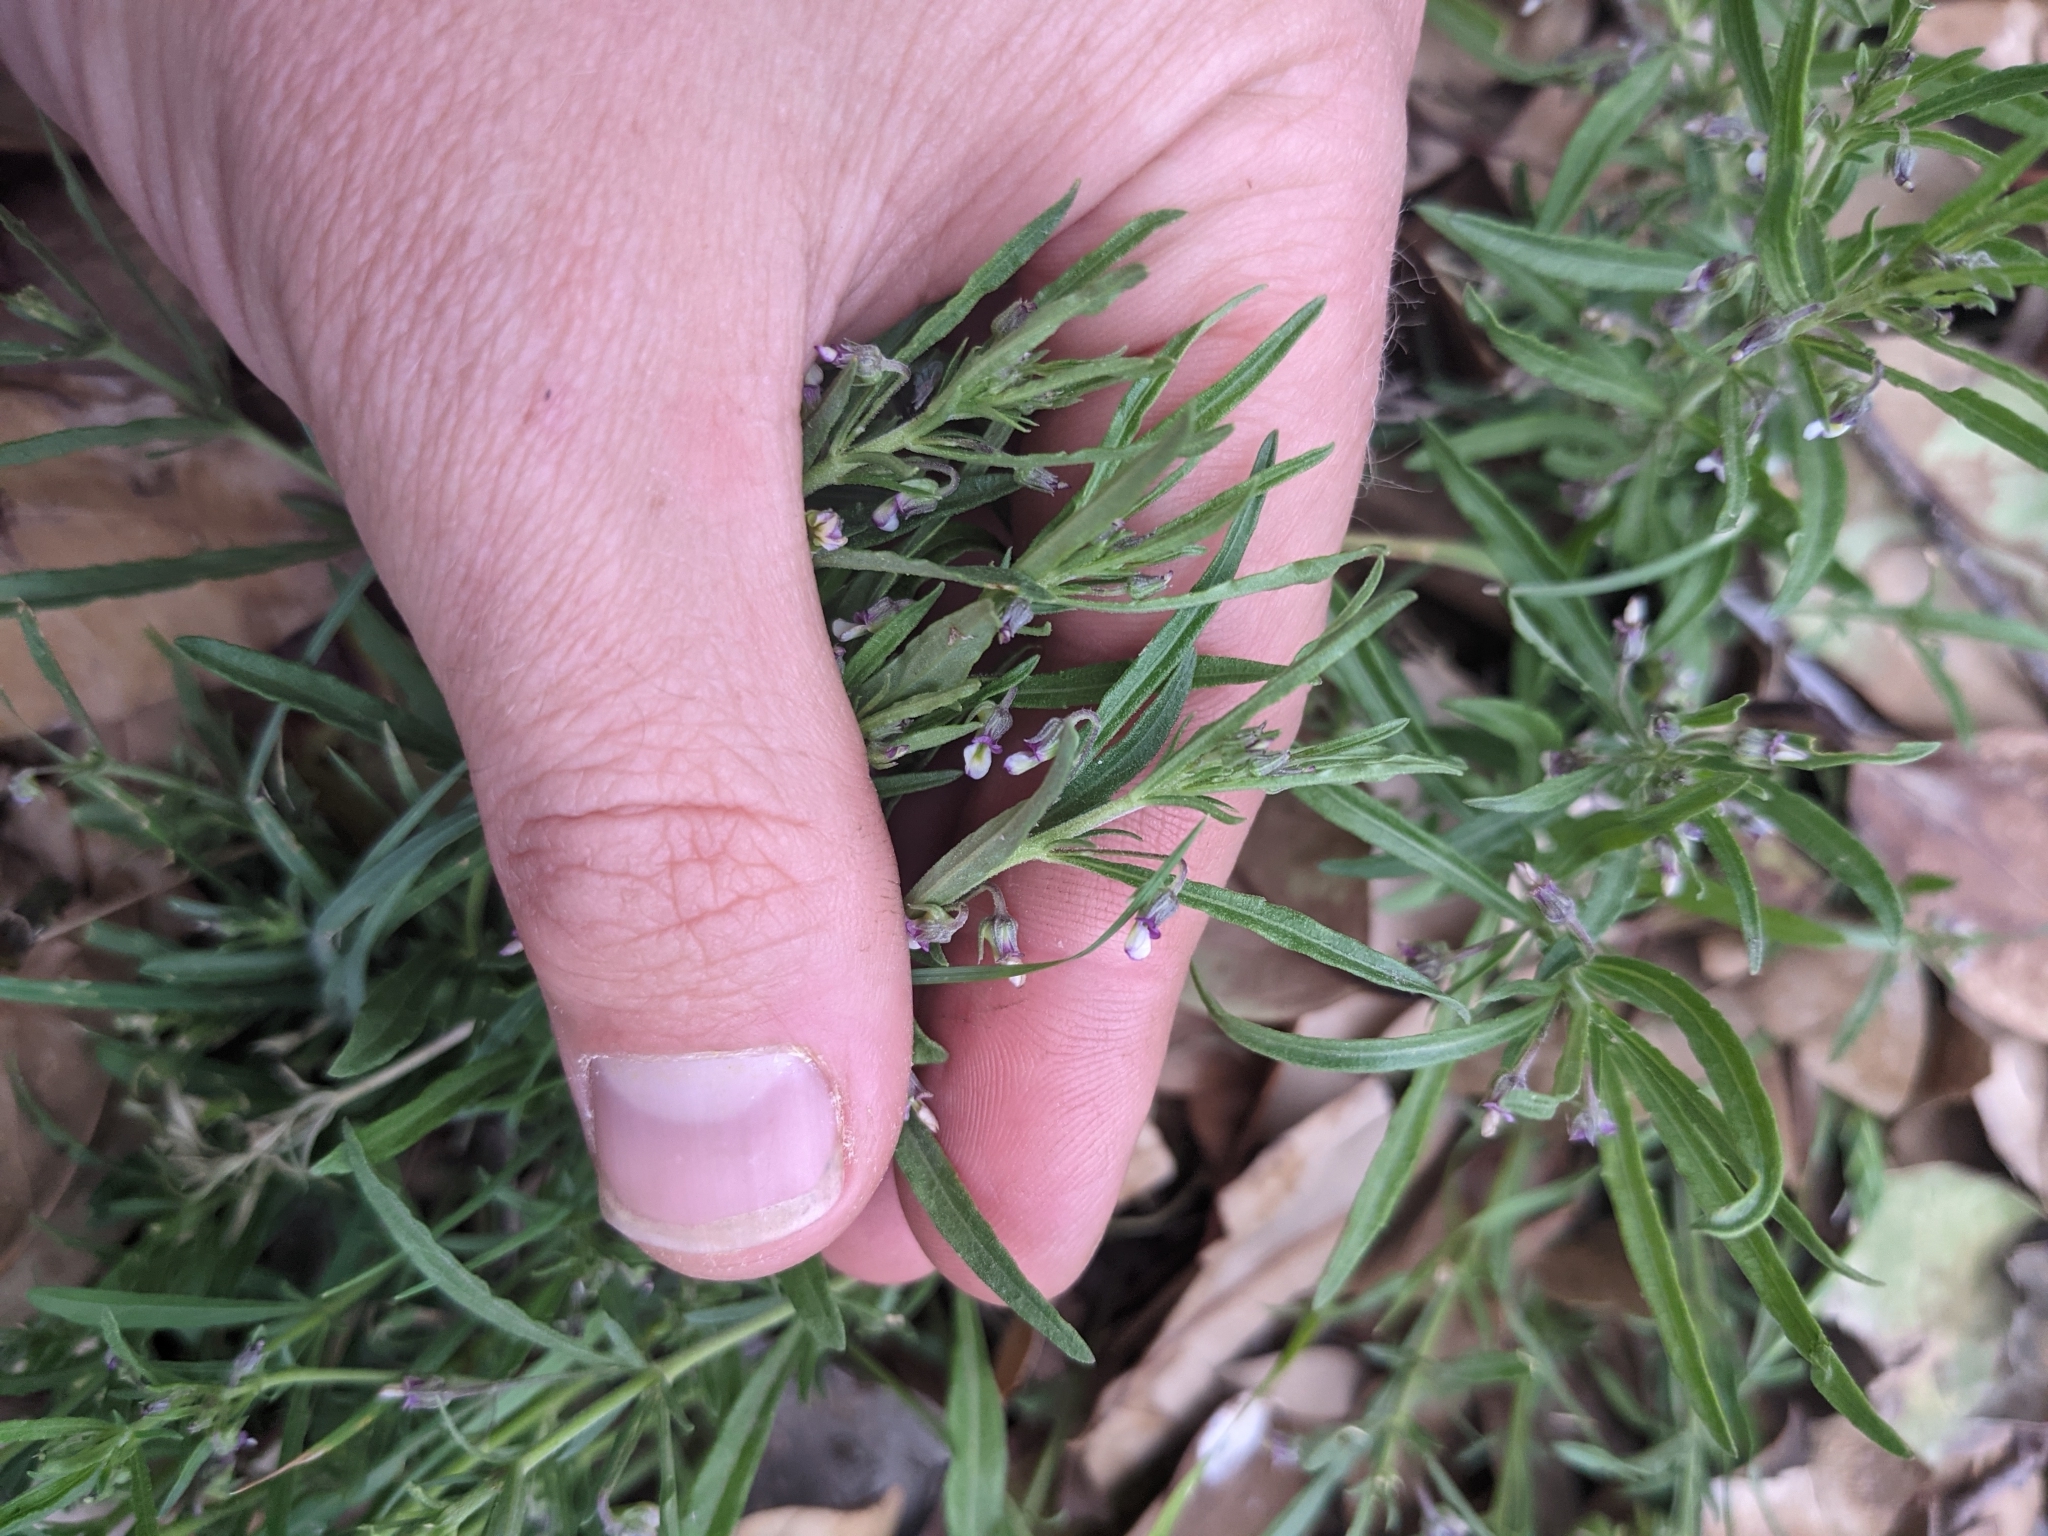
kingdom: Plantae
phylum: Tracheophyta
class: Magnoliopsida
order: Malpighiales
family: Violaceae
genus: Pombalia
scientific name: Pombalia verticillata
